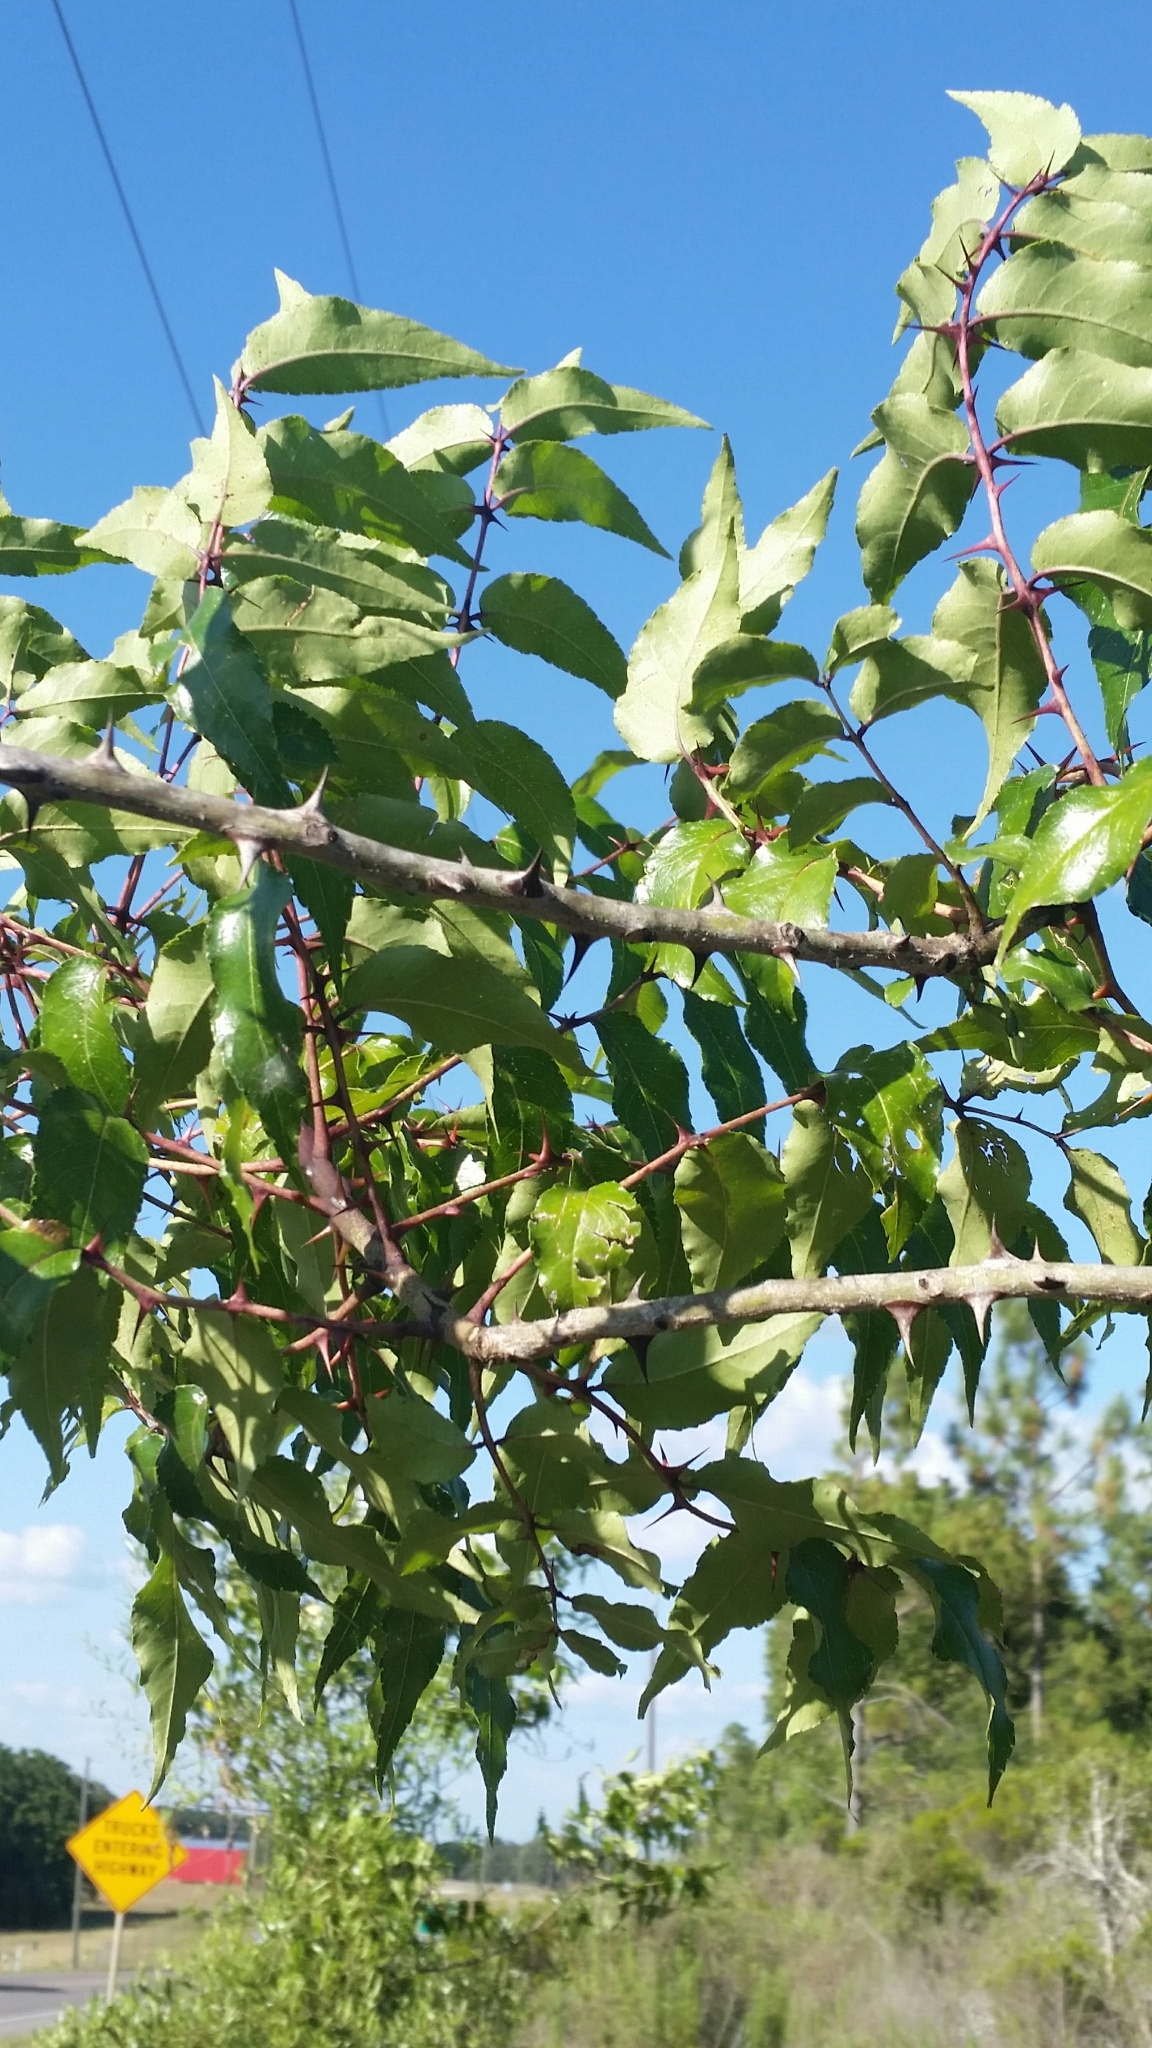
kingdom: Plantae
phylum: Tracheophyta
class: Magnoliopsida
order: Sapindales
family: Rutaceae
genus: Zanthoxylum
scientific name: Zanthoxylum clava-herculis
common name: Hercules'-club
